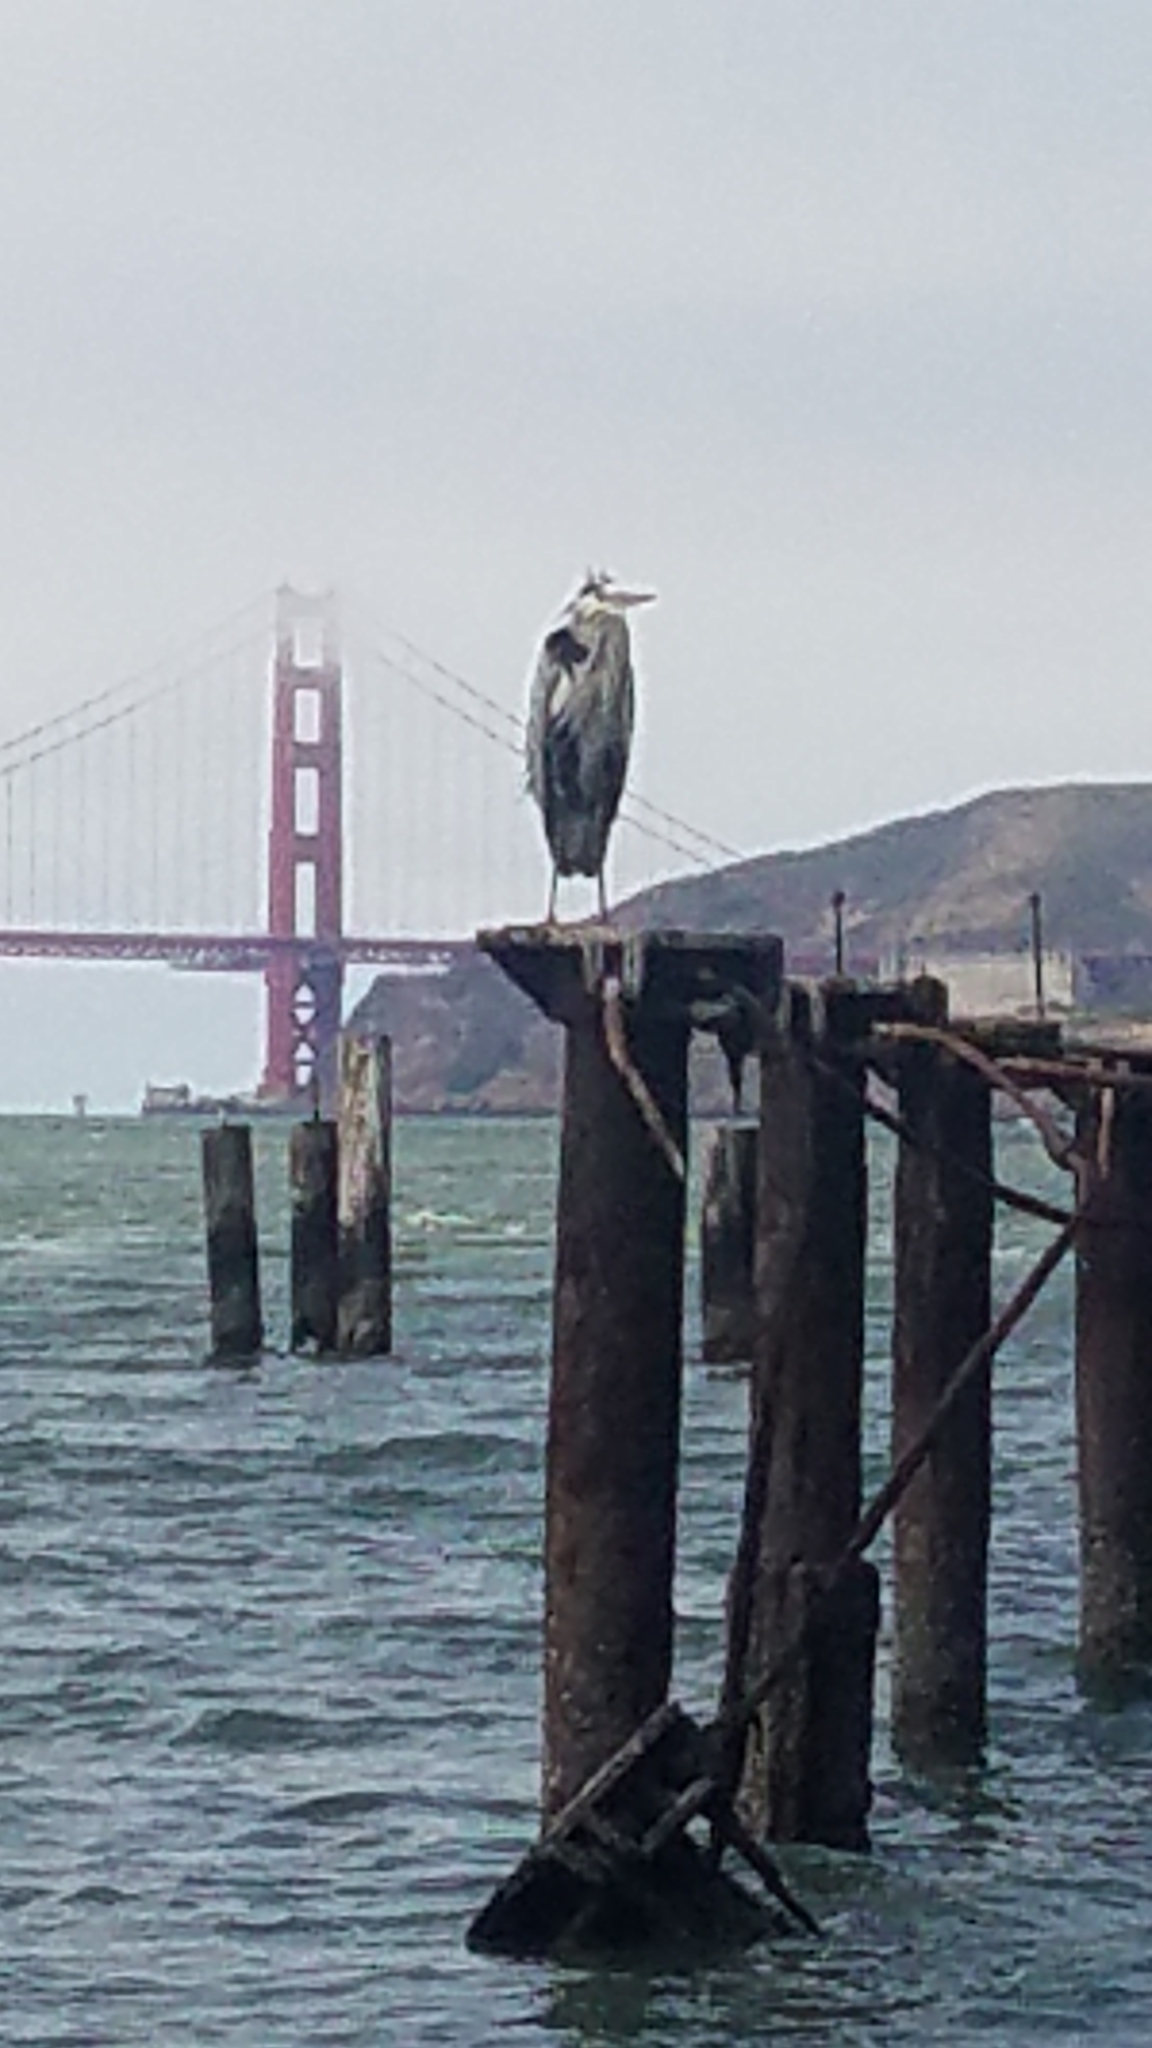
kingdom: Animalia
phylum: Chordata
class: Aves
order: Pelecaniformes
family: Ardeidae
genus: Ardea
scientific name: Ardea herodias
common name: Great blue heron
